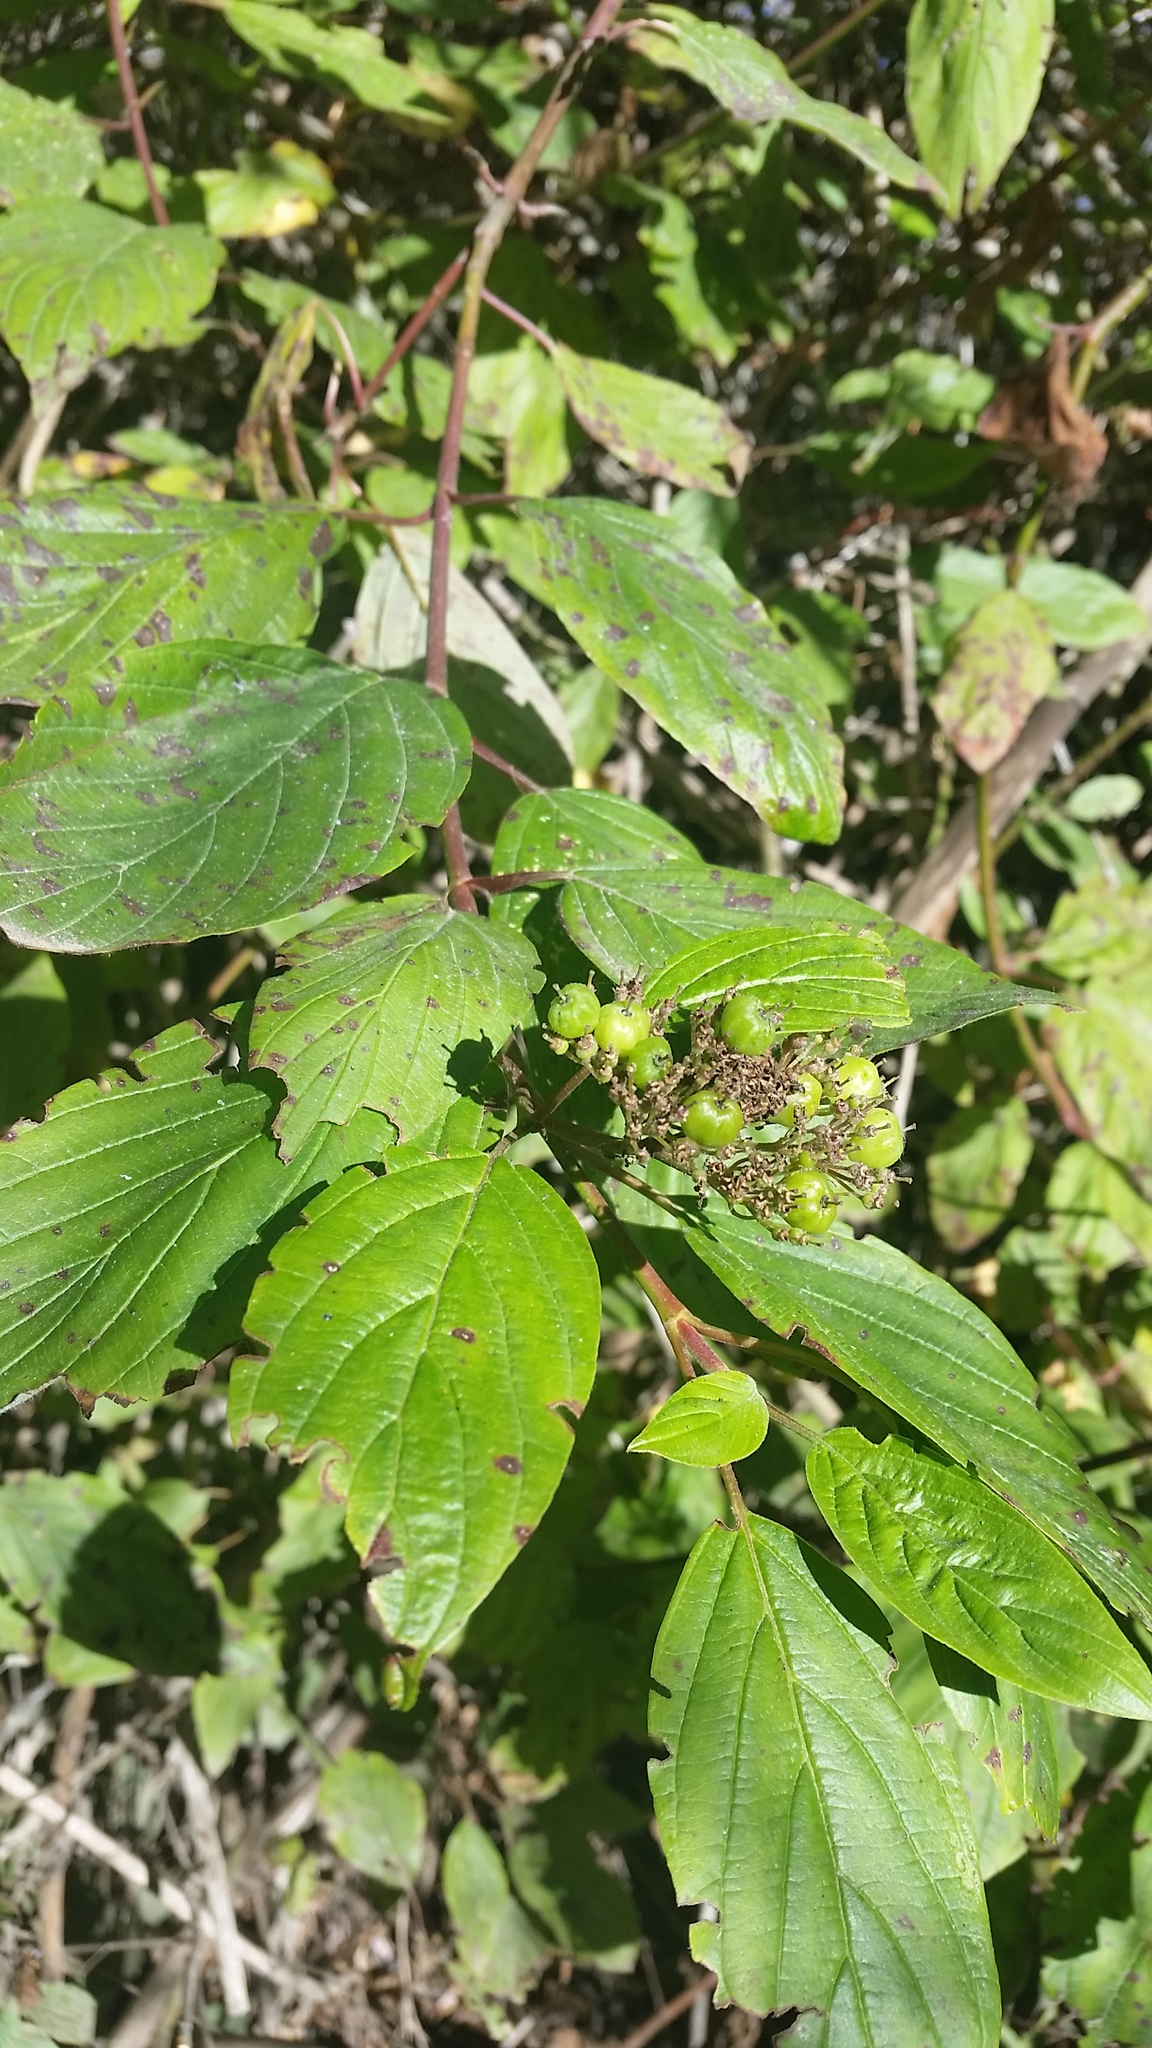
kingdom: Plantae
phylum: Tracheophyta
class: Magnoliopsida
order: Cornales
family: Cornaceae
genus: Cornus
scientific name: Cornus sericea
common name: Red-osier dogwood
